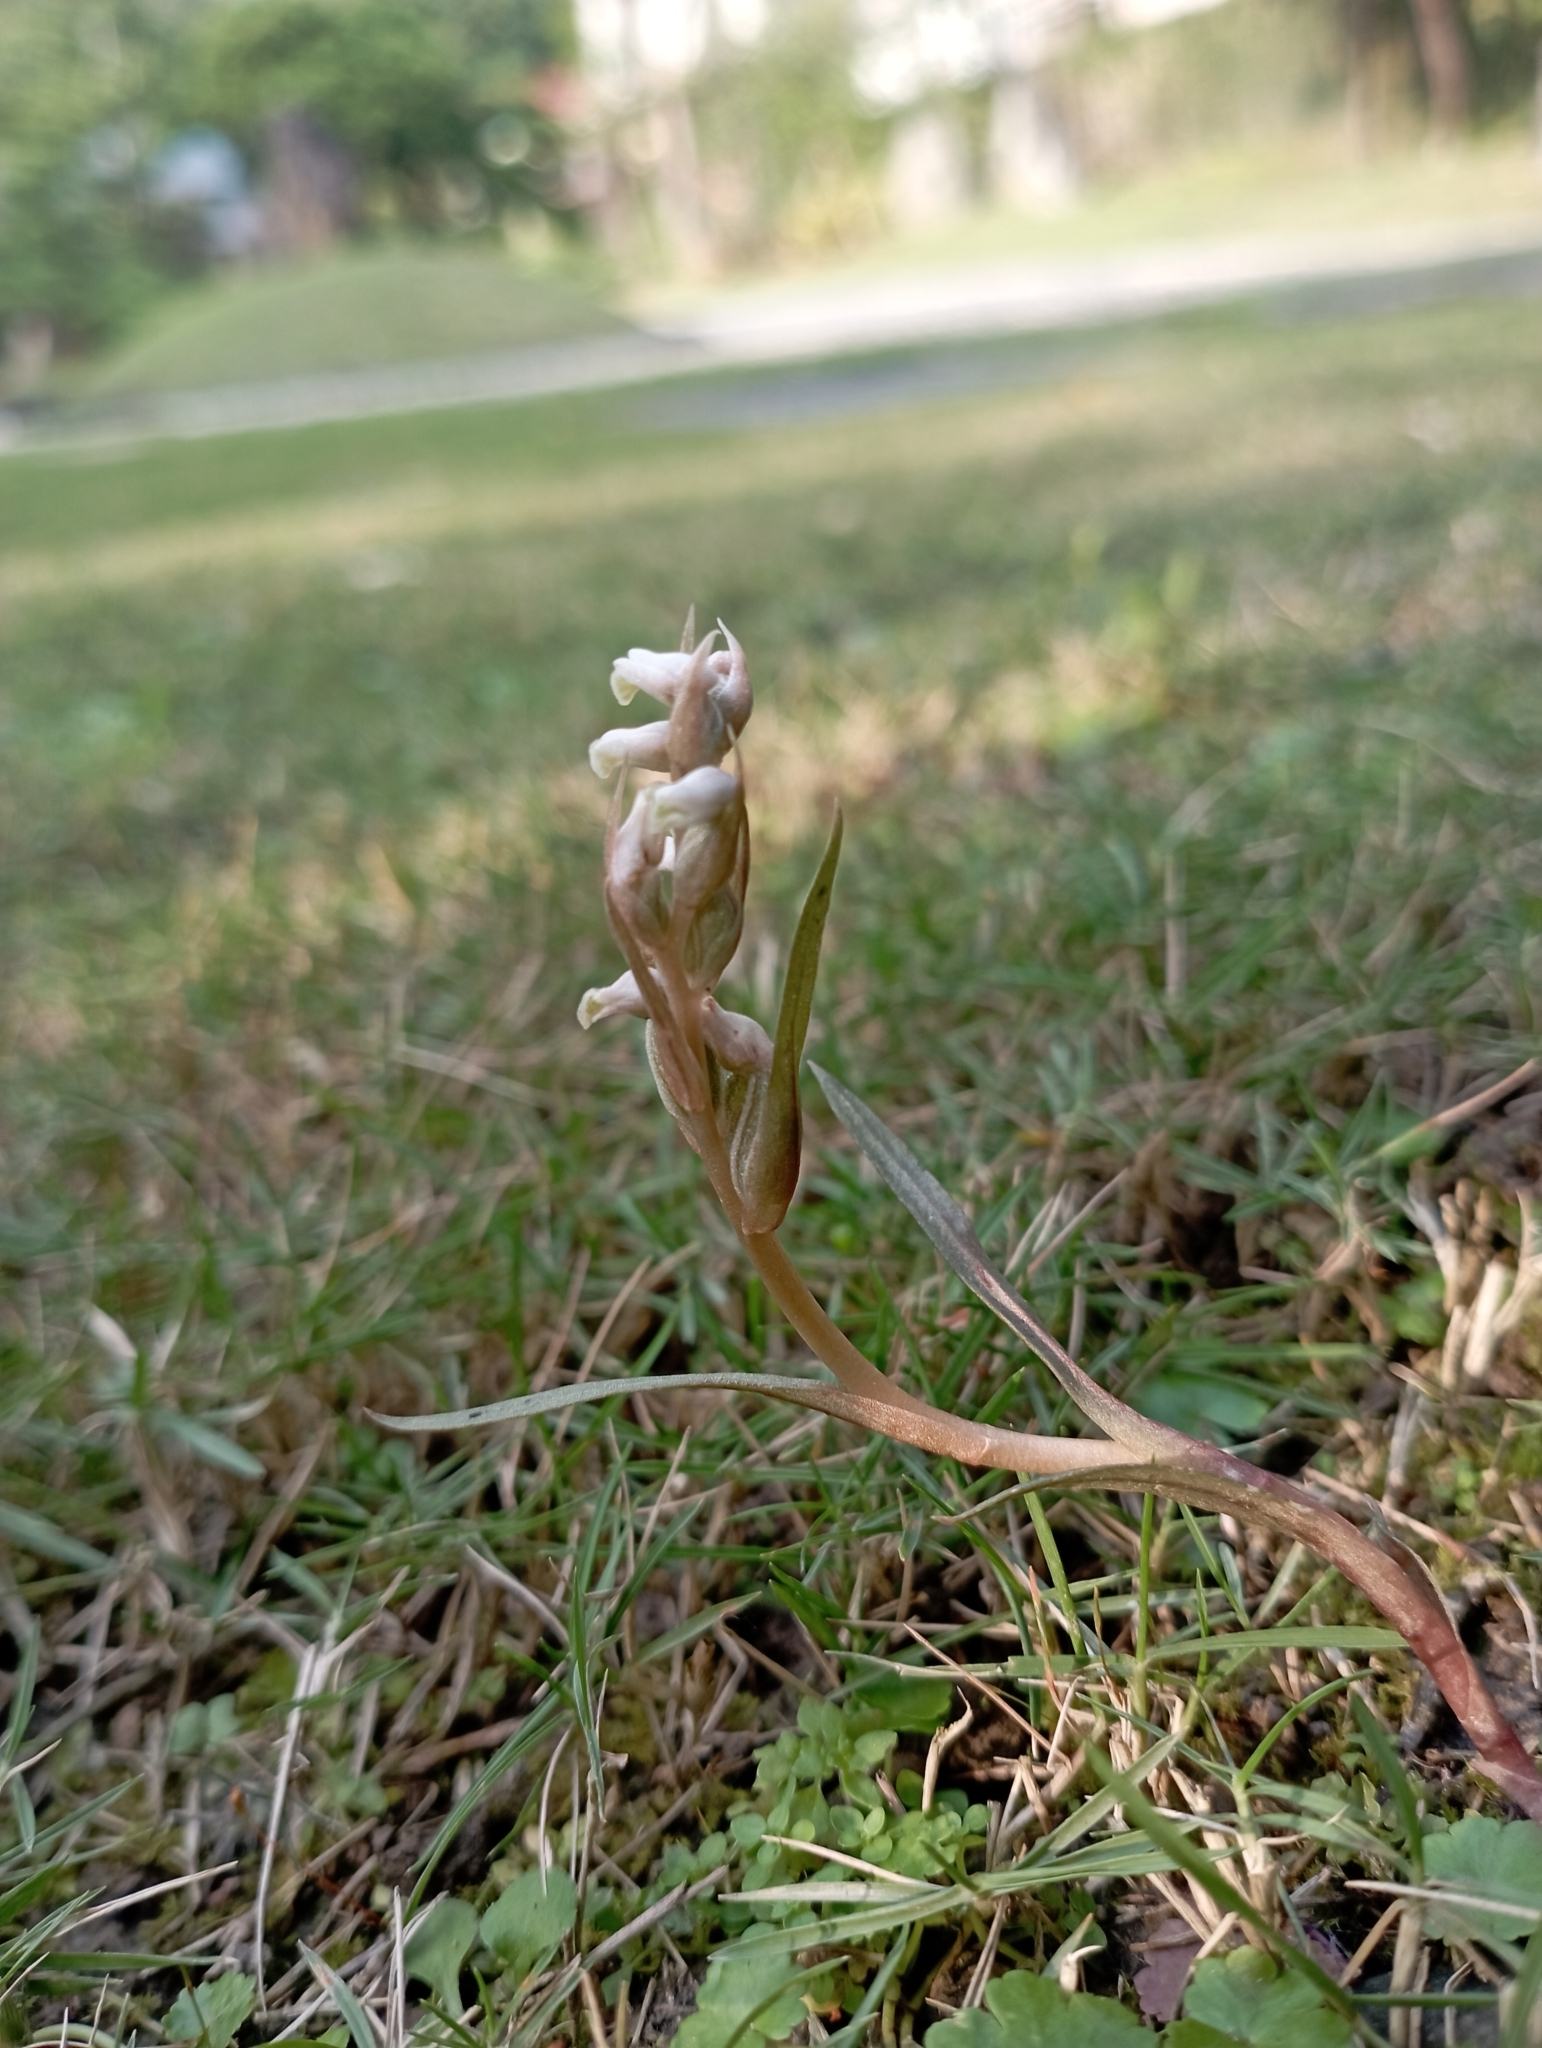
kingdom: Plantae
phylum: Tracheophyta
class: Liliopsida
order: Asparagales
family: Orchidaceae
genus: Zeuxine
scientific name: Zeuxine strateumatica
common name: Soldier's orchid
